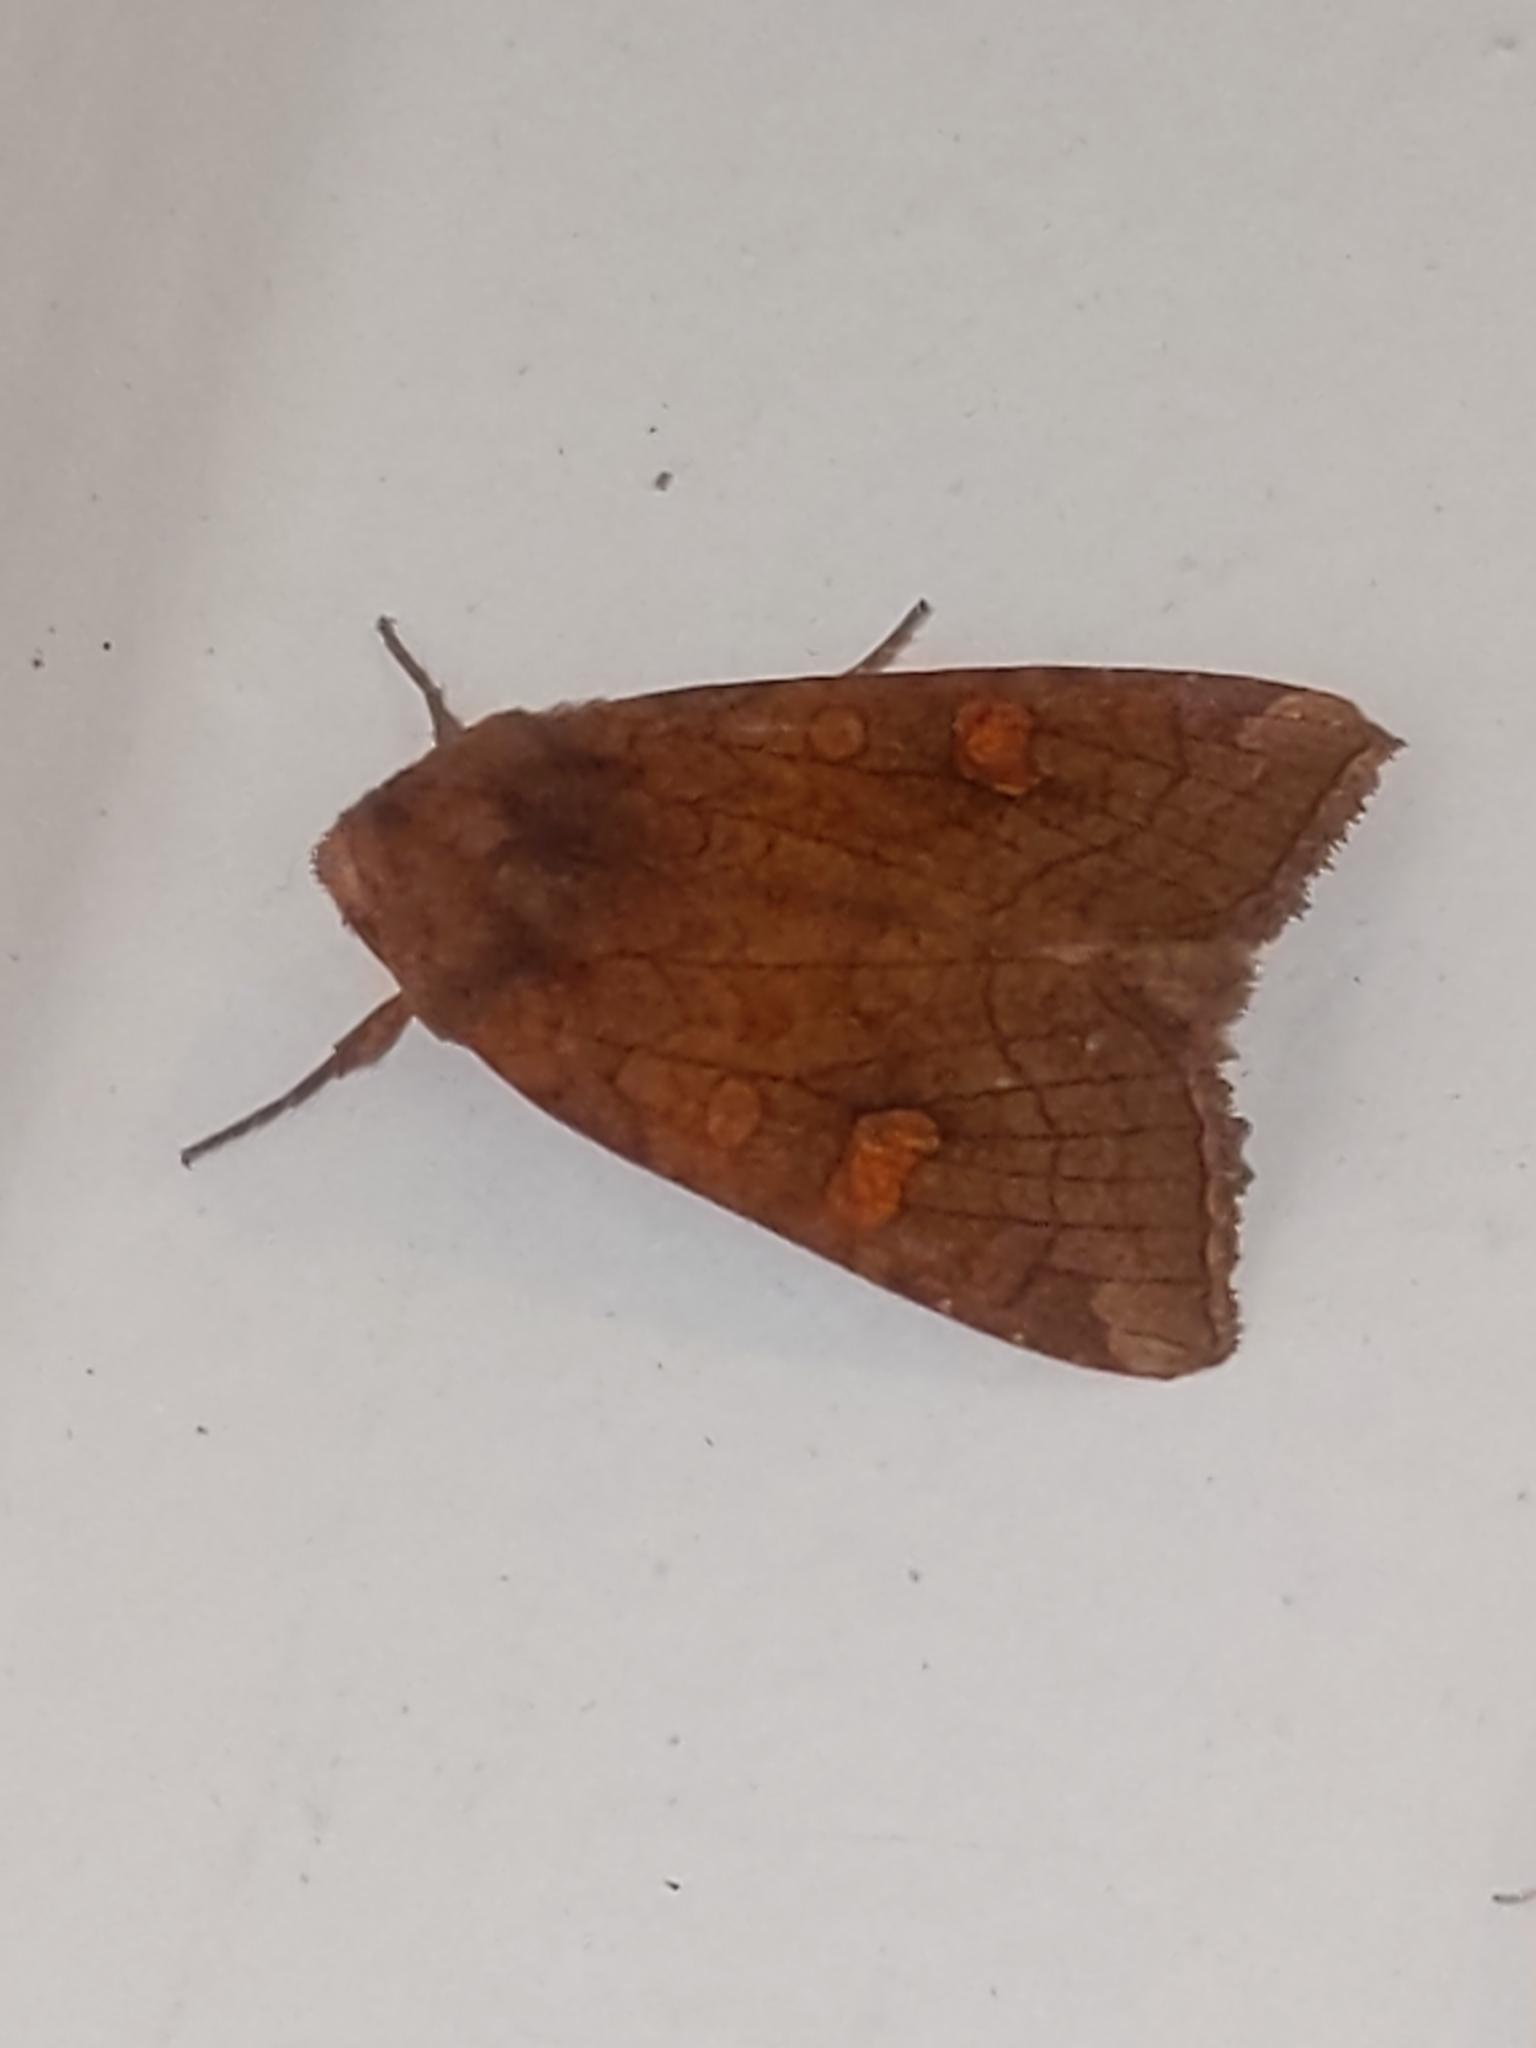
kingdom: Animalia
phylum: Arthropoda
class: Insecta
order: Lepidoptera
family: Noctuidae
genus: Amphipoea
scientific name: Amphipoea americana
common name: American ear moth
